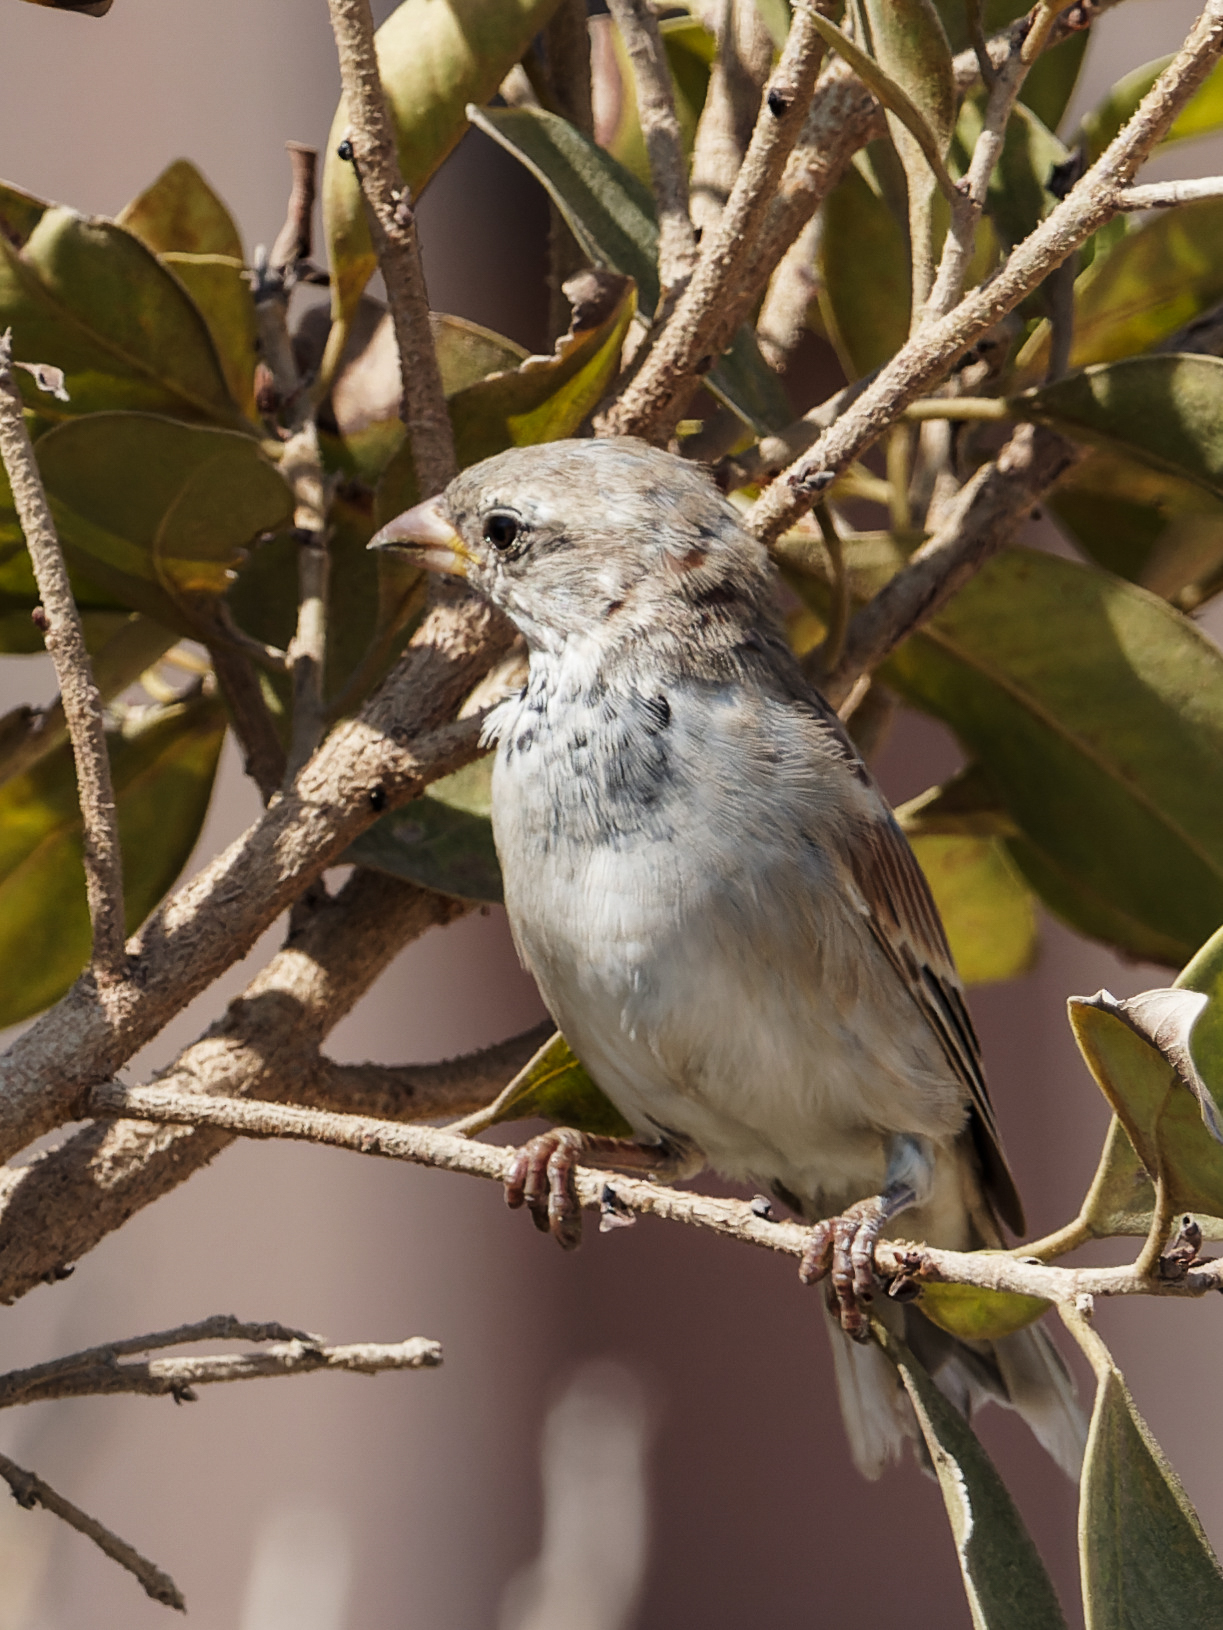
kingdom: Animalia
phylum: Chordata
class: Aves
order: Passeriformes
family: Passeridae
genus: Passer
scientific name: Passer domesticus
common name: House sparrow
